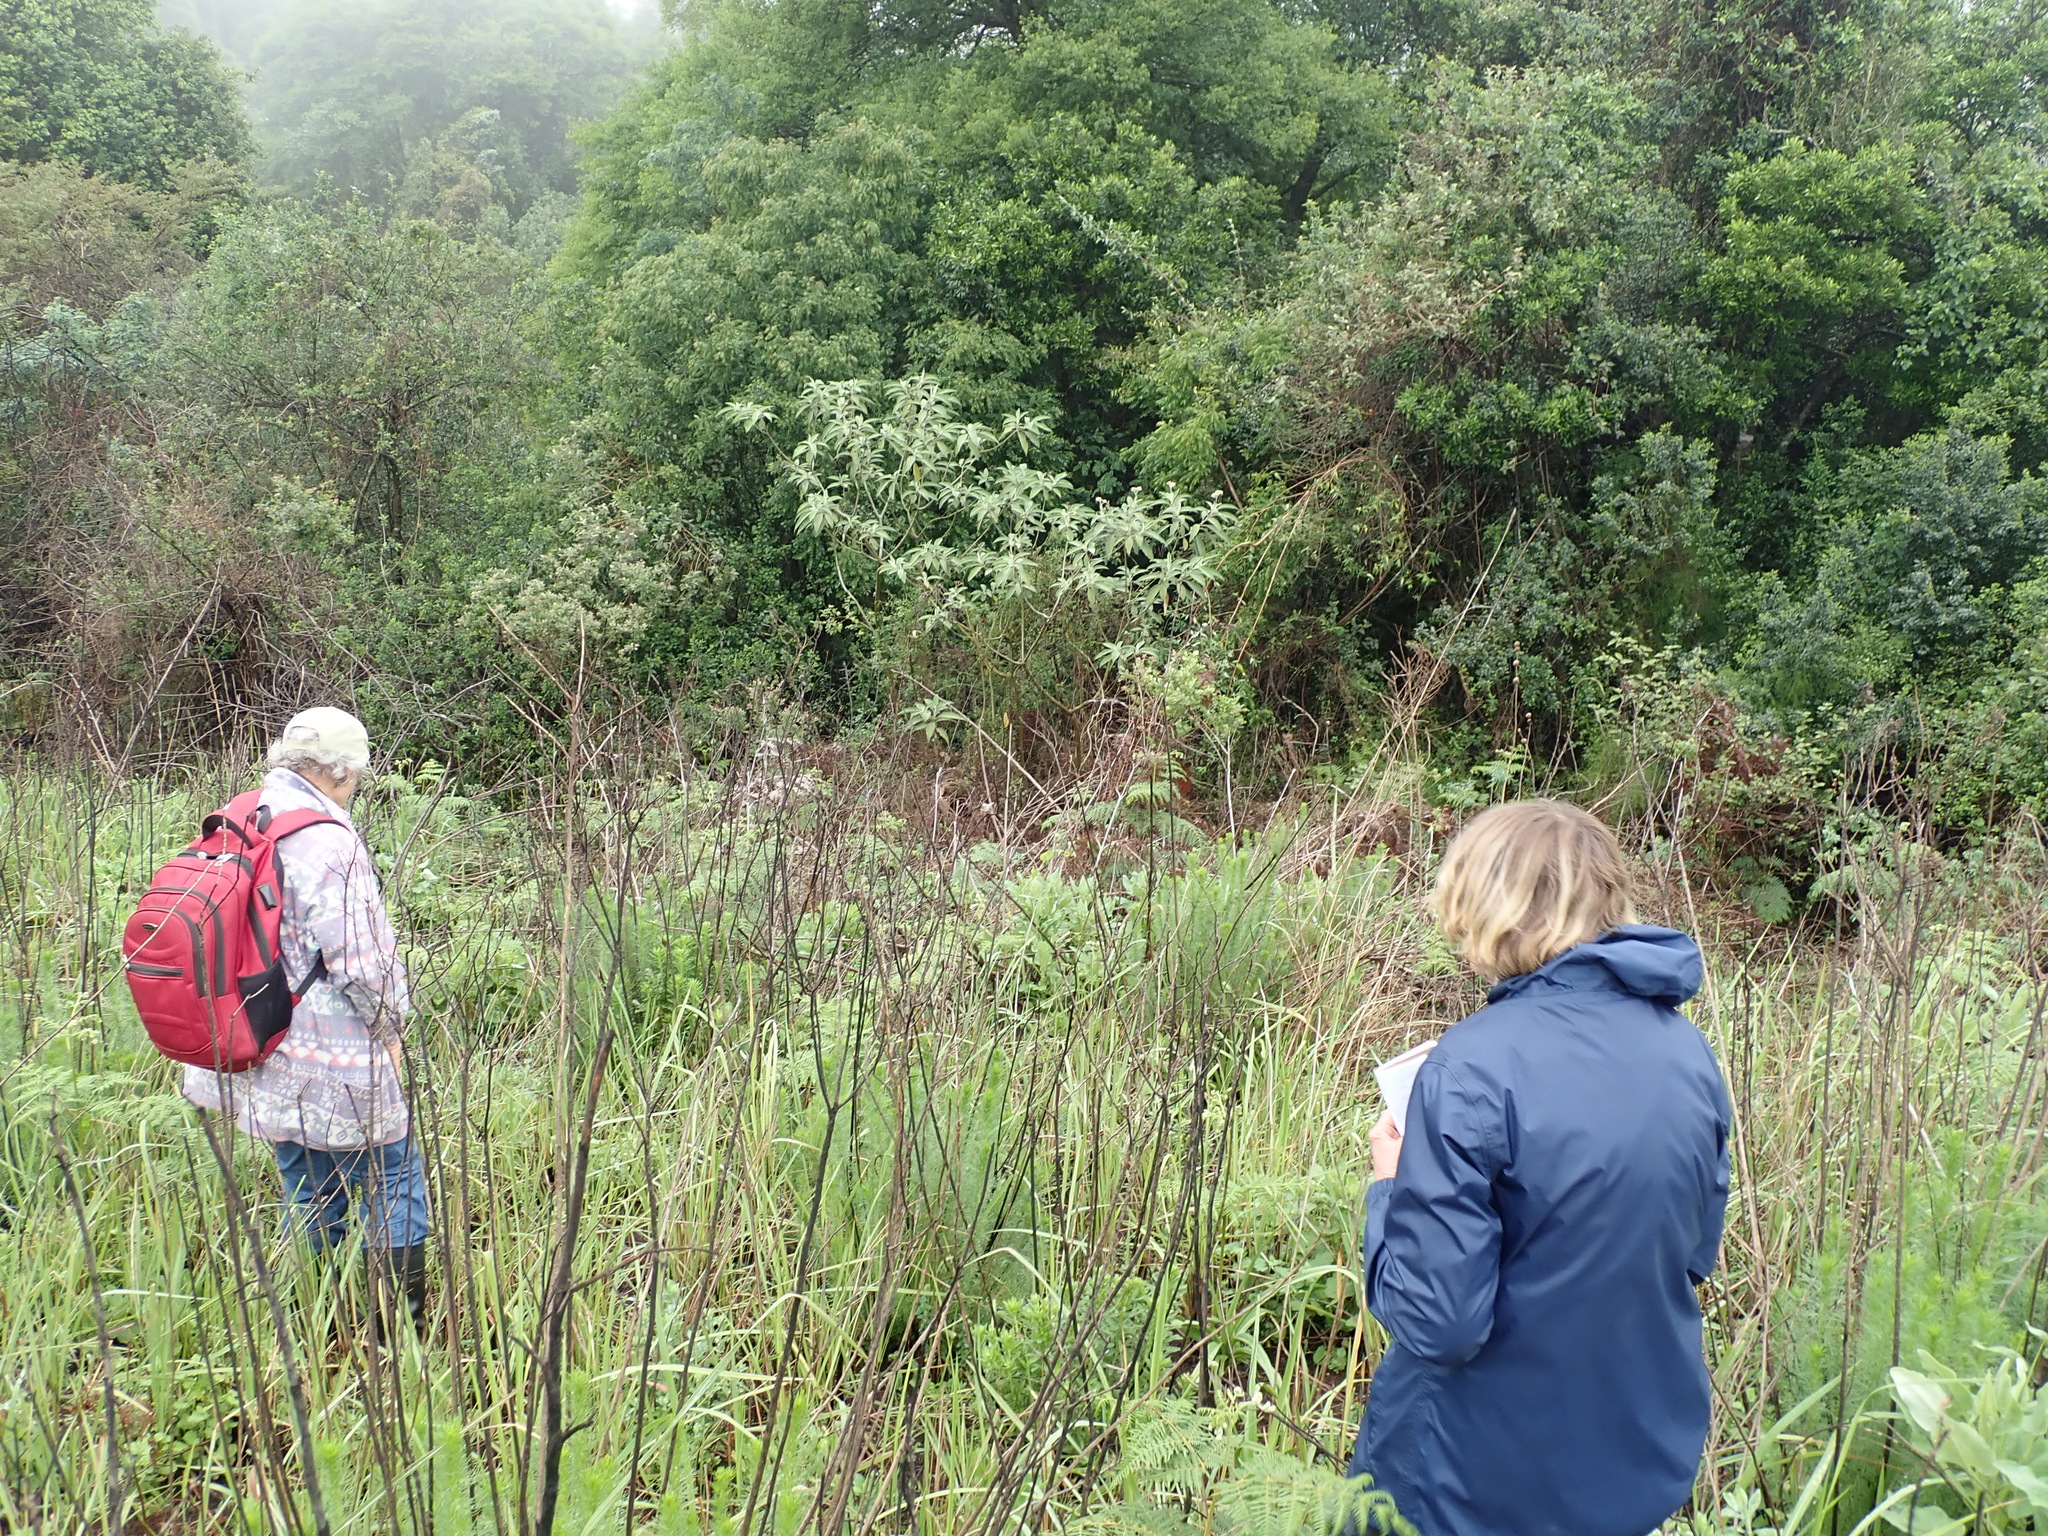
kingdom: Plantae
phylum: Tracheophyta
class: Magnoliopsida
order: Solanales
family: Solanaceae
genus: Solanum
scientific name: Solanum mauritianum
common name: Earleaf nightshade
